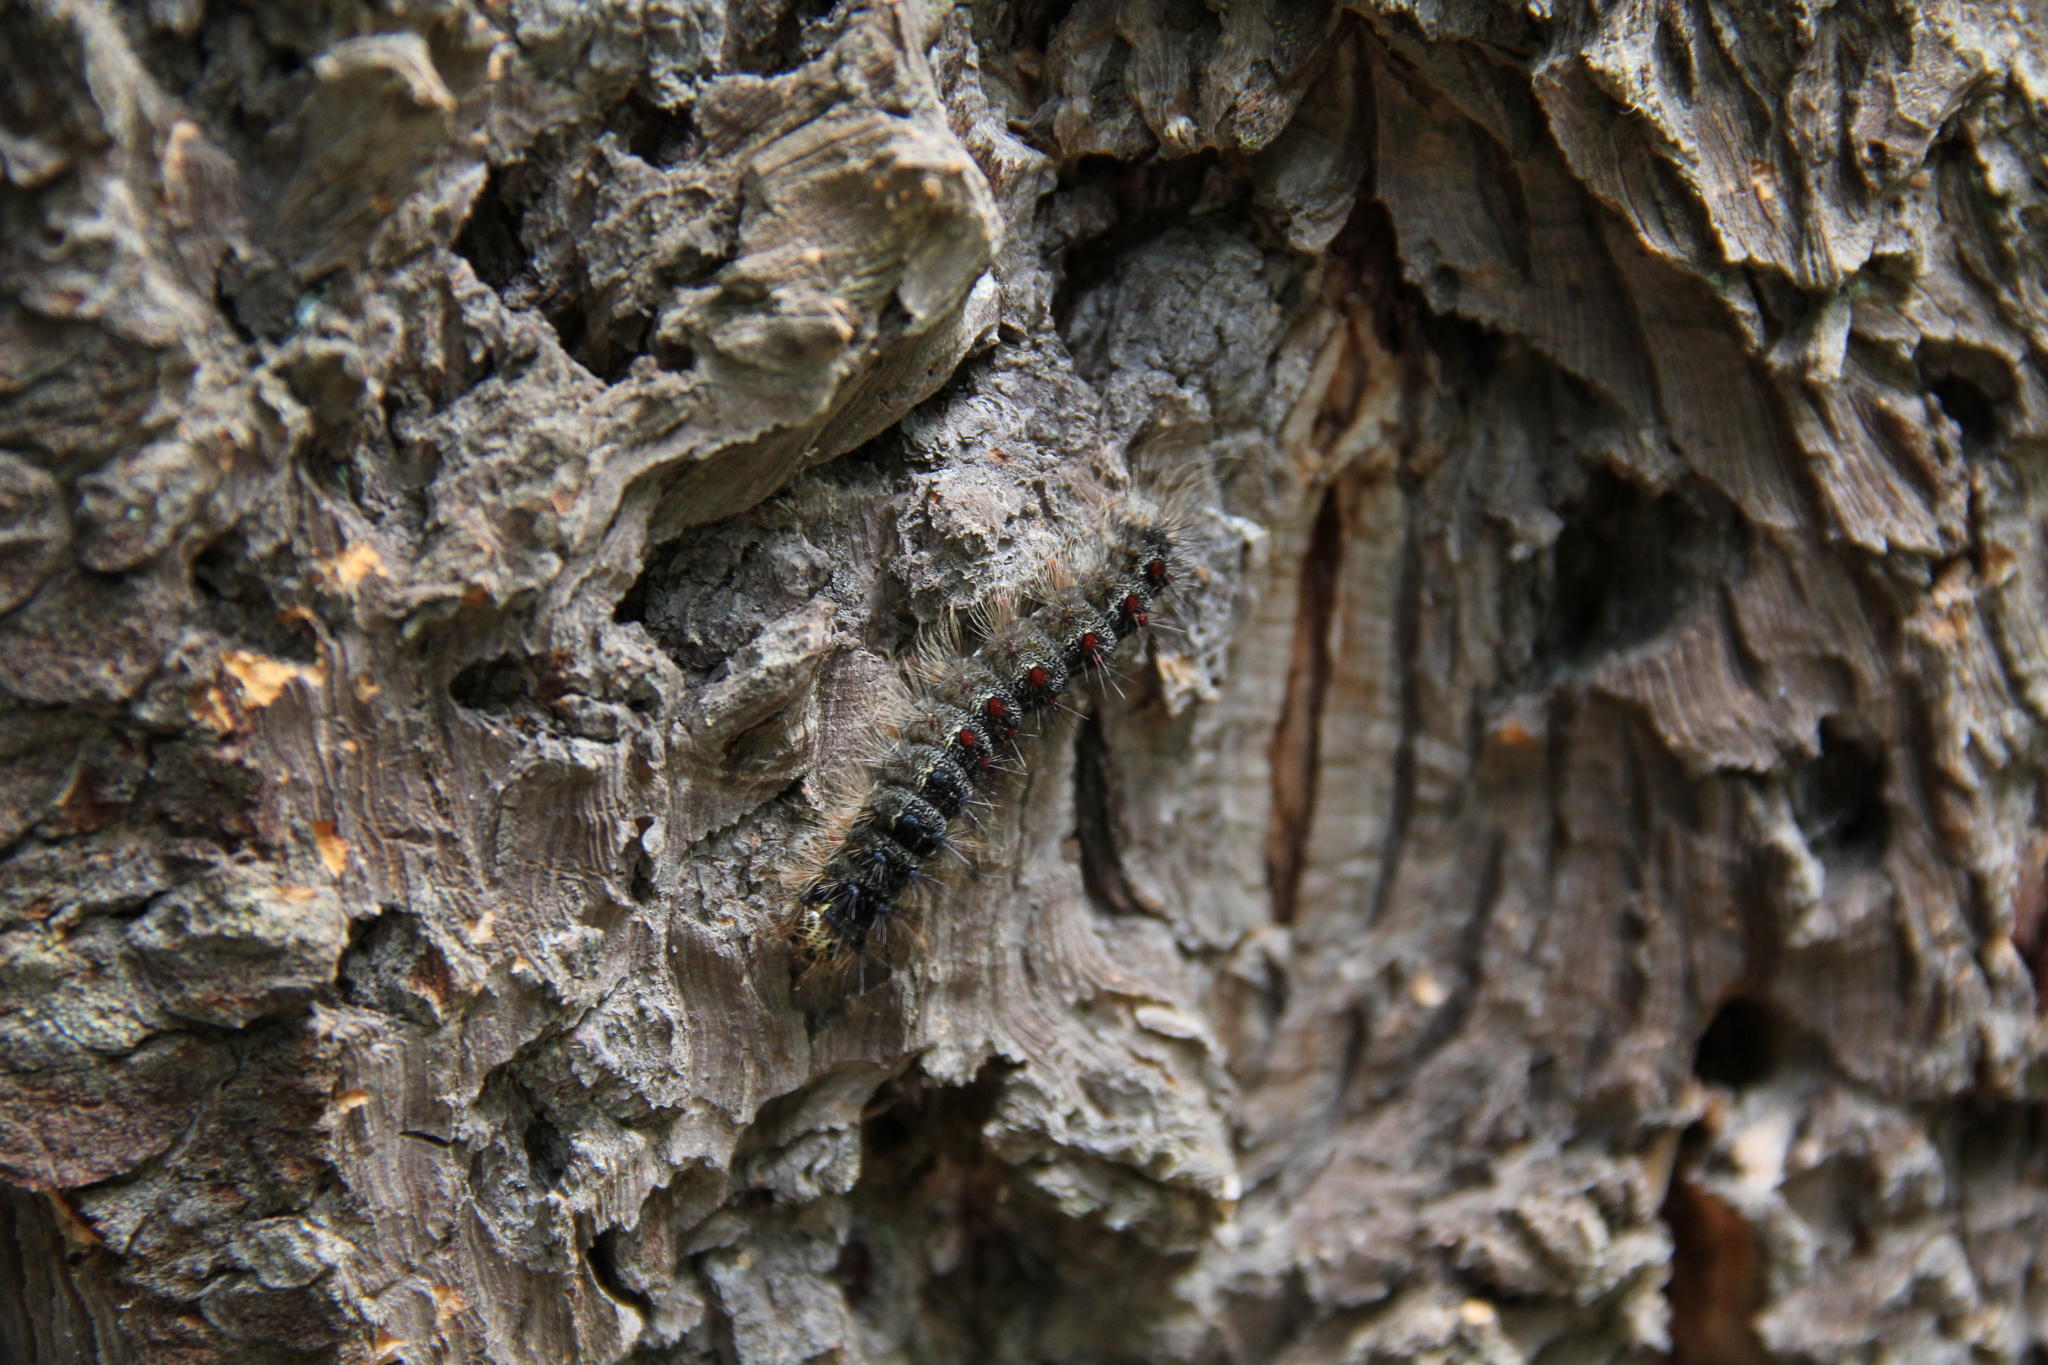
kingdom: Animalia
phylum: Arthropoda
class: Insecta
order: Lepidoptera
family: Erebidae
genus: Lymantria
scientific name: Lymantria dispar
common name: Gypsy moth
